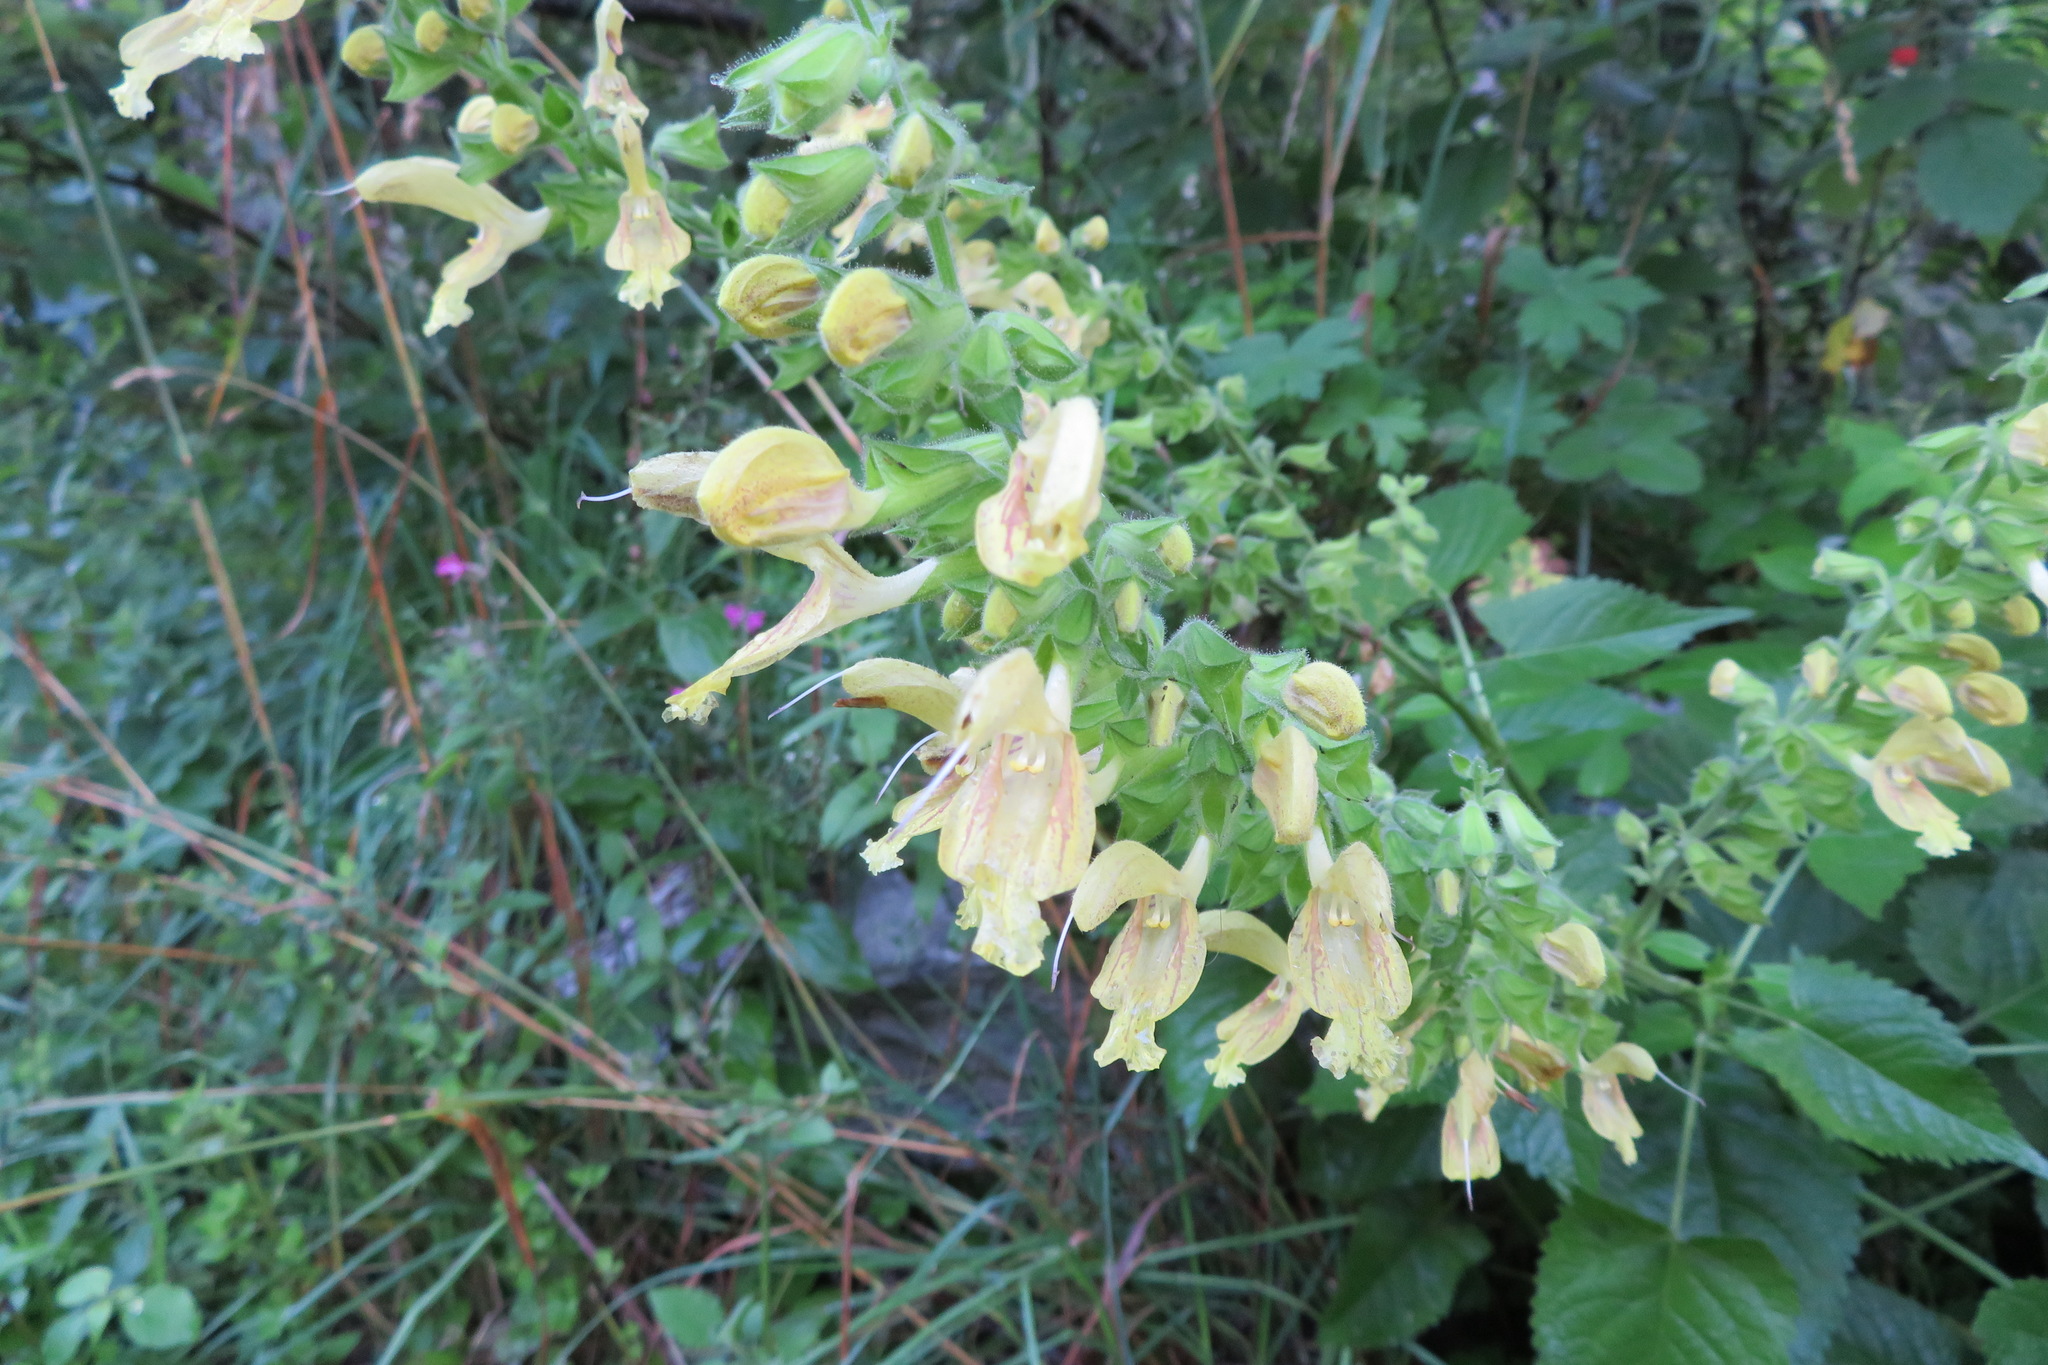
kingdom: Plantae
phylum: Tracheophyta
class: Magnoliopsida
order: Lamiales
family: Lamiaceae
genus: Salvia
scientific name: Salvia glutinosa
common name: Sticky clary
